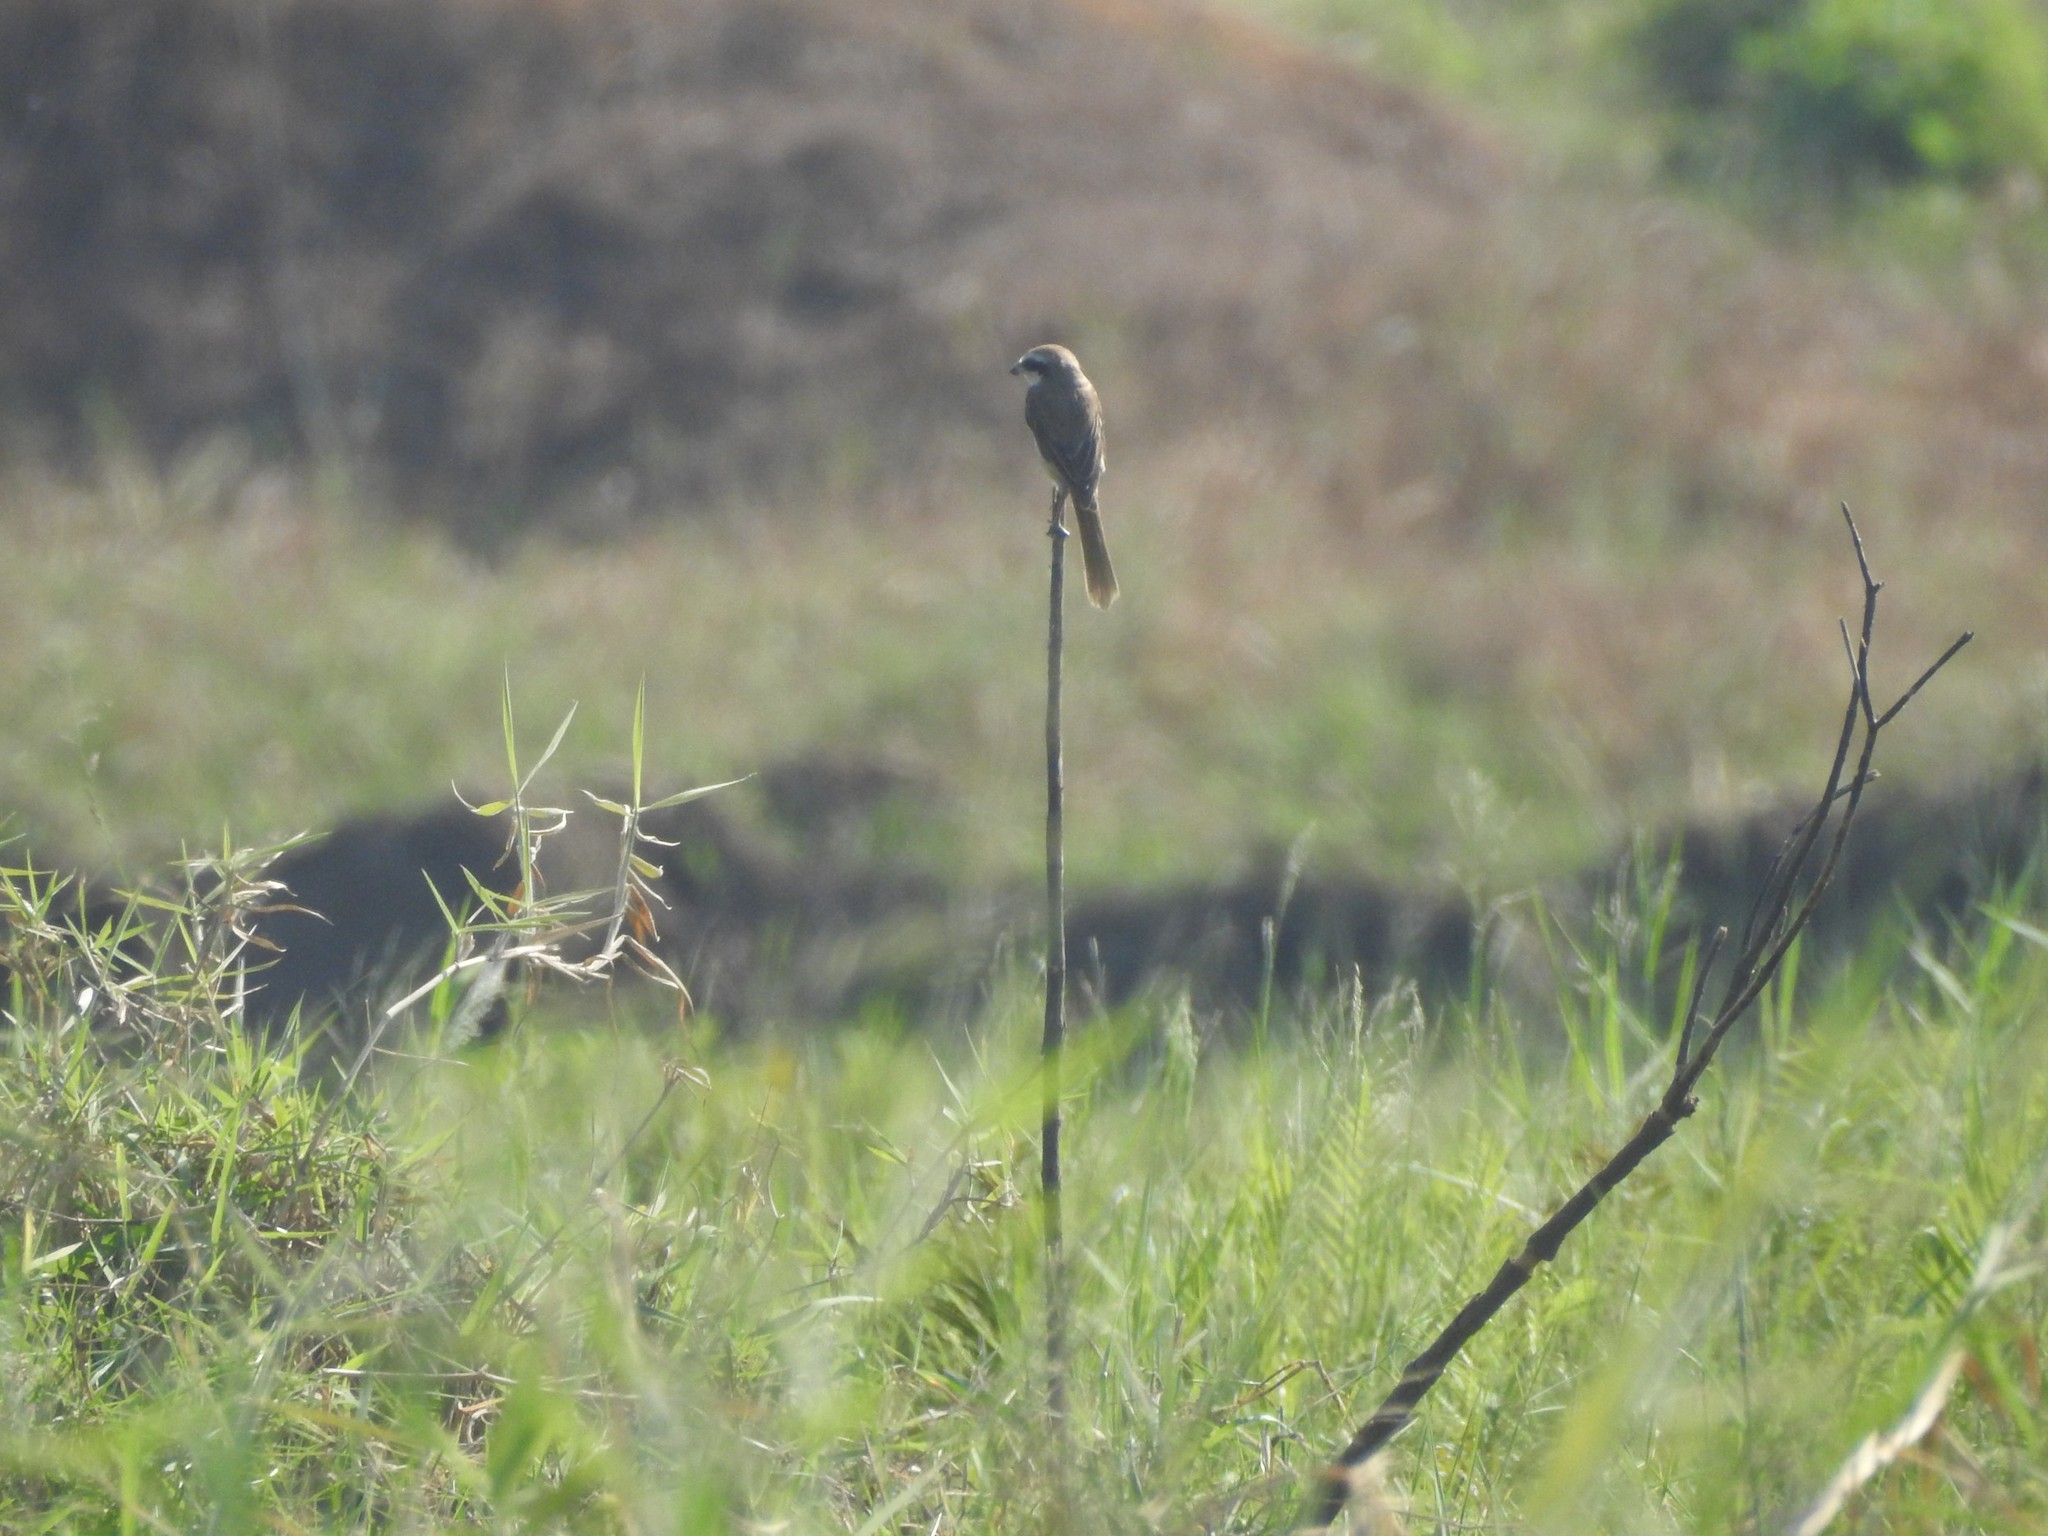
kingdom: Animalia
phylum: Chordata
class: Aves
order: Passeriformes
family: Laniidae
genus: Lanius
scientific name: Lanius cristatus
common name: Brown shrike
